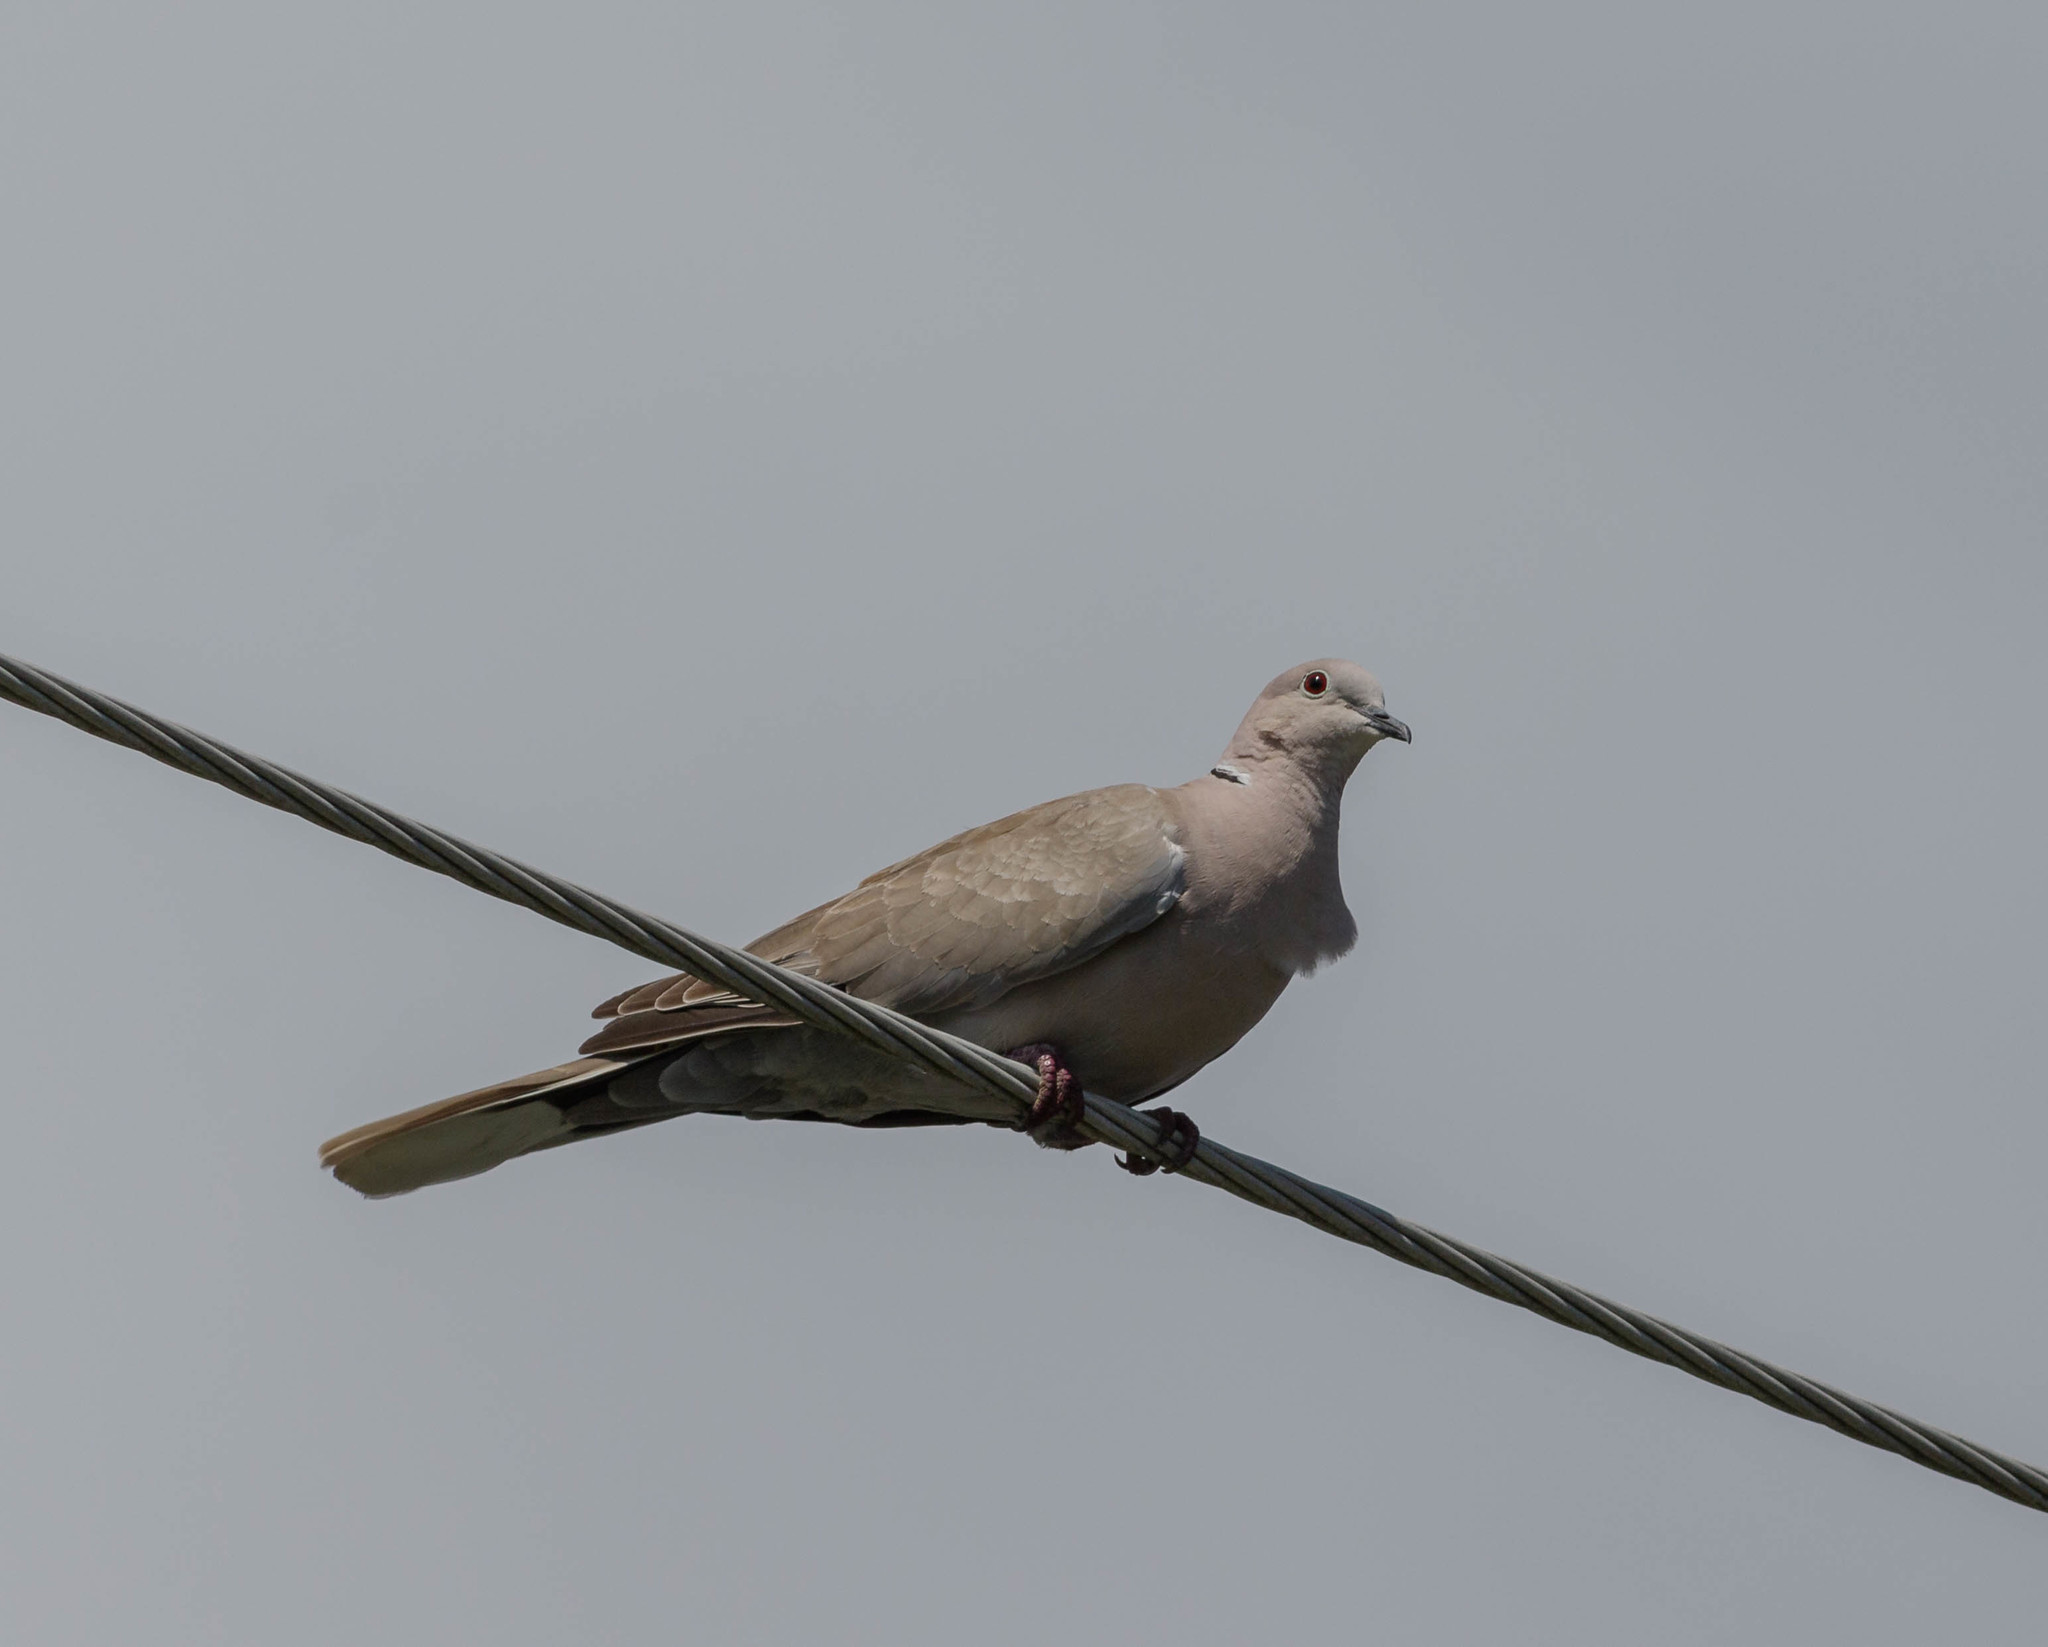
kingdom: Animalia
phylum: Chordata
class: Aves
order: Columbiformes
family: Columbidae
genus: Streptopelia
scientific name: Streptopelia decaocto
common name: Eurasian collared dove
